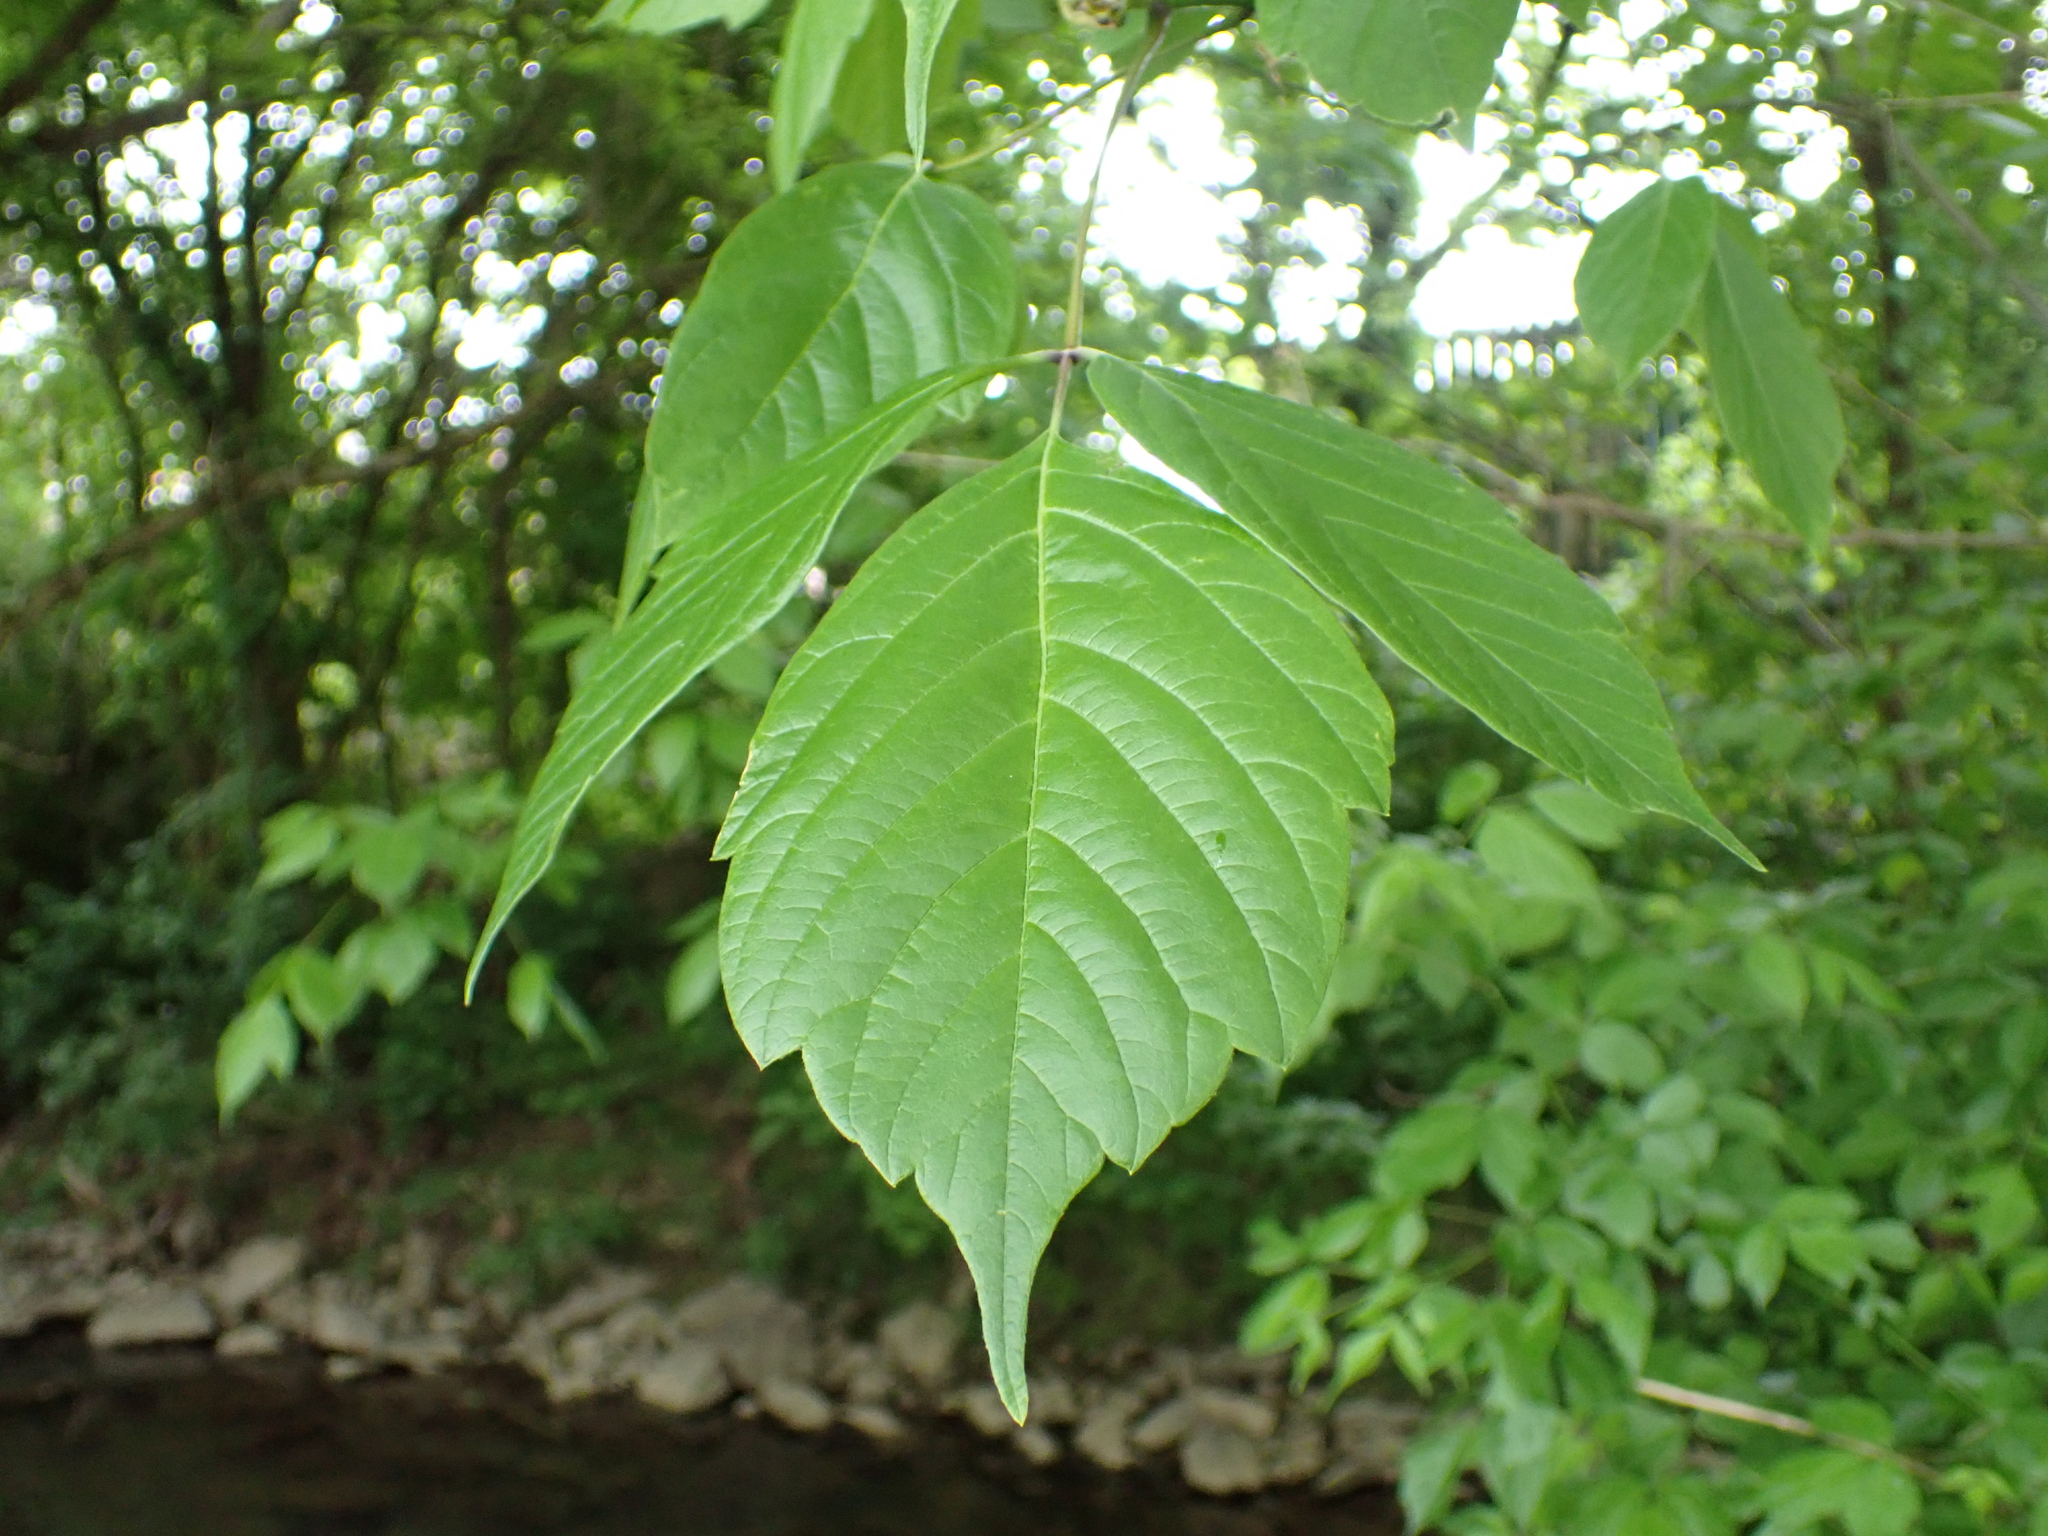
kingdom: Plantae
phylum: Tracheophyta
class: Magnoliopsida
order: Sapindales
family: Sapindaceae
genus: Acer
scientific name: Acer negundo
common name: Ashleaf maple
